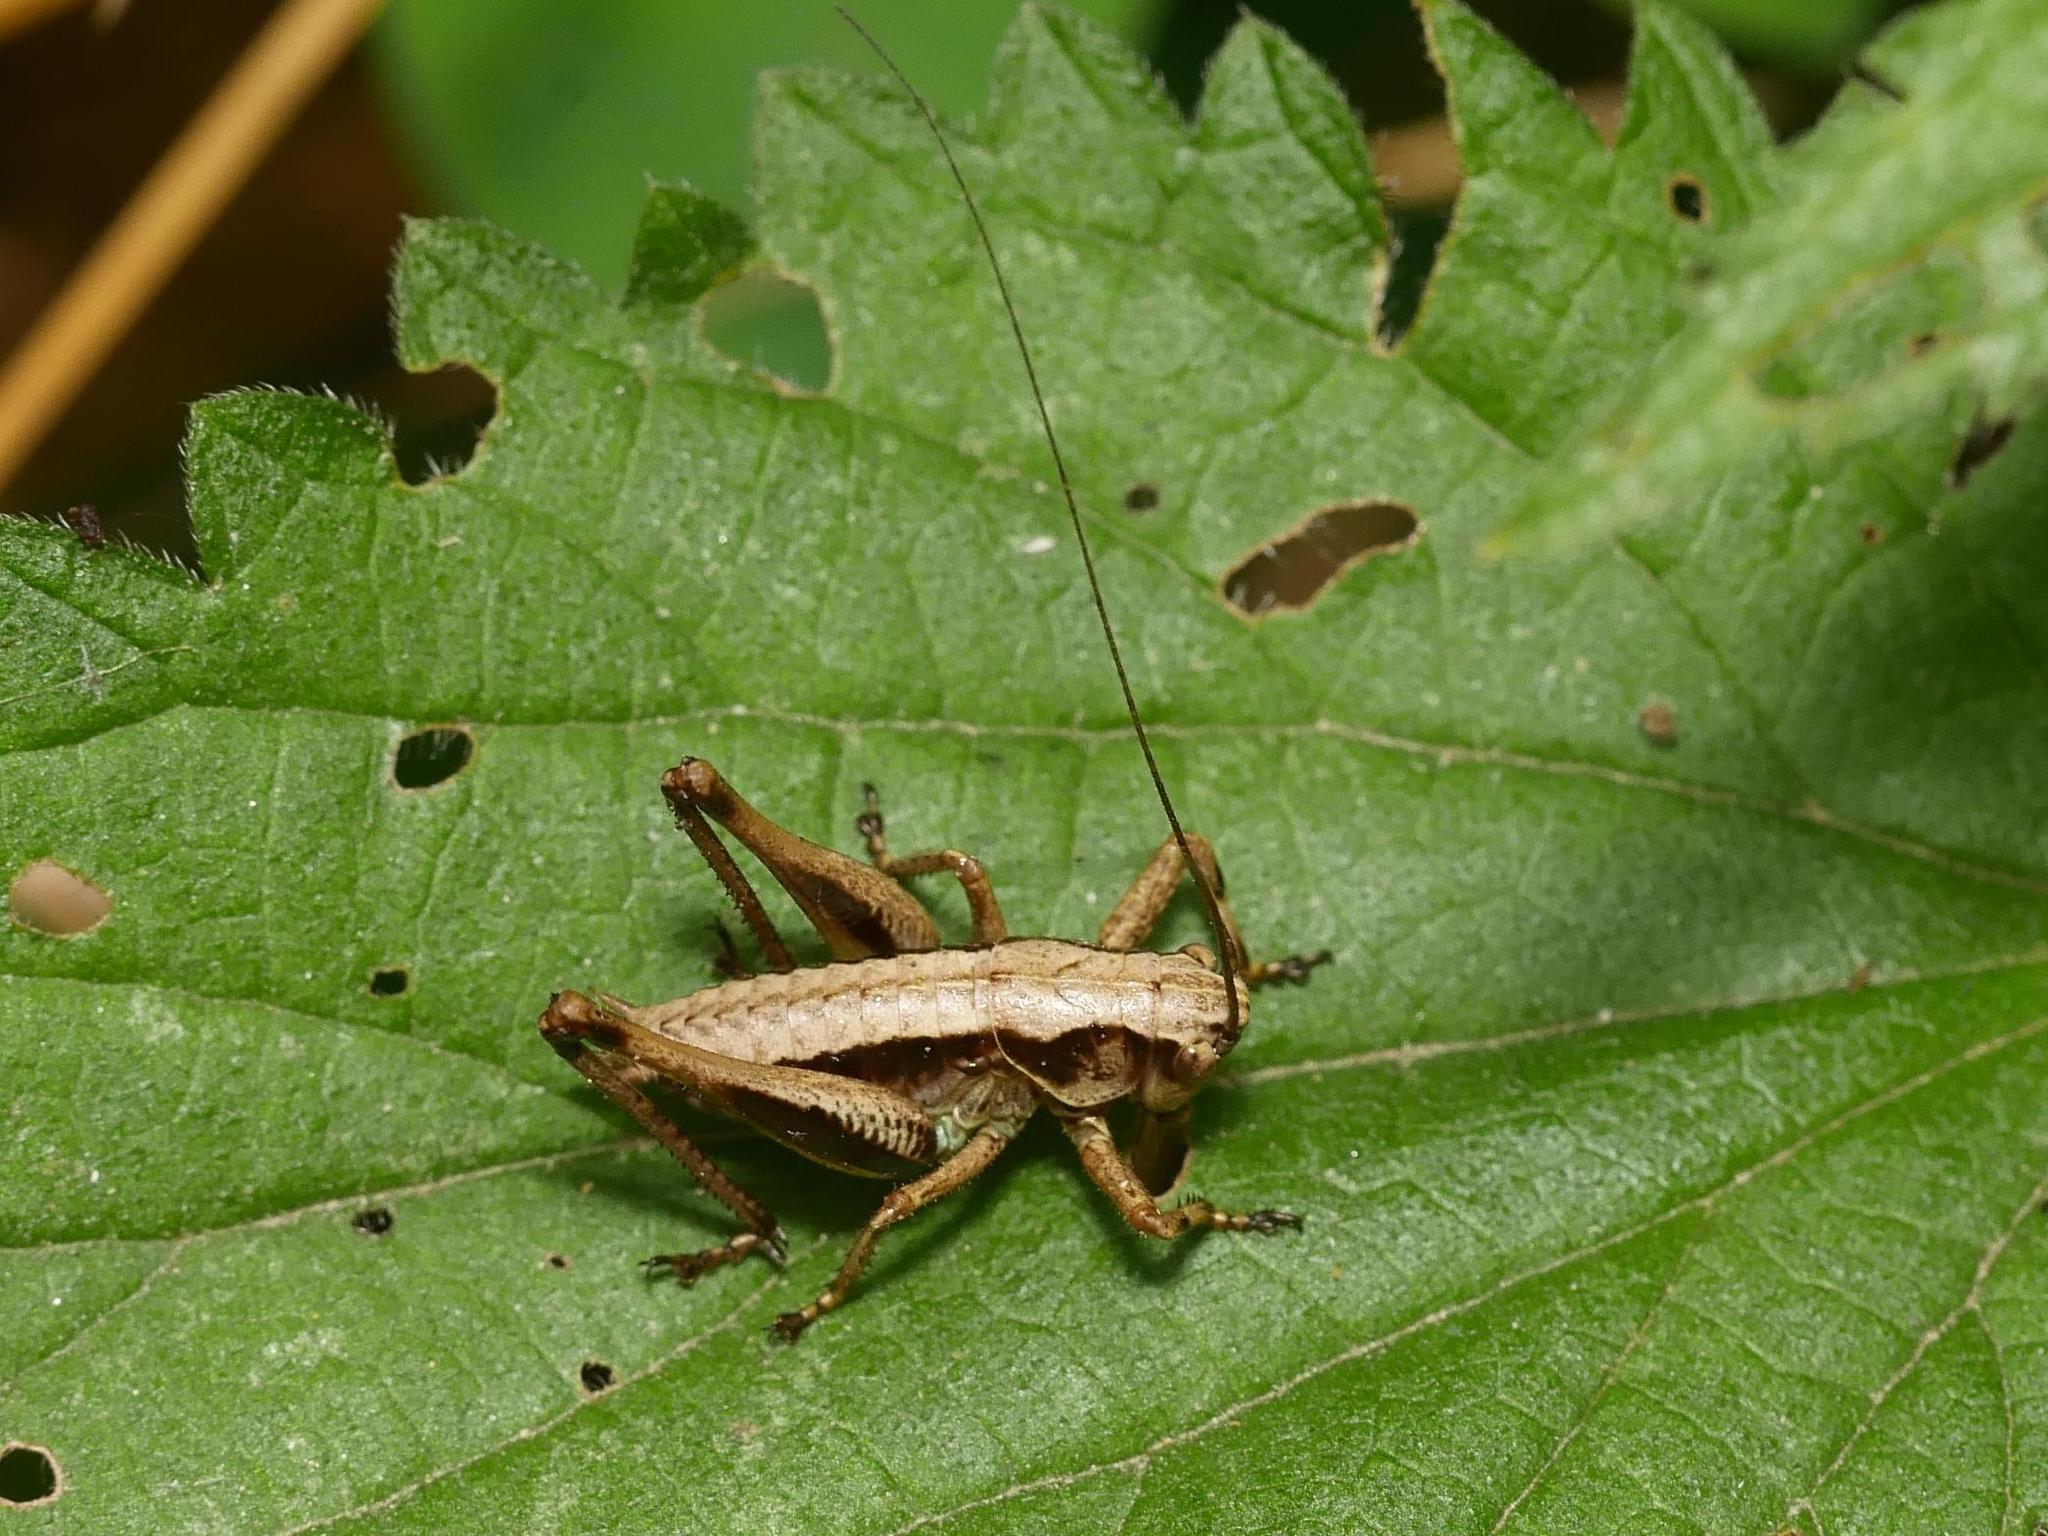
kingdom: Animalia
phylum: Arthropoda
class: Insecta
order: Orthoptera
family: Tettigoniidae
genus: Pholidoptera
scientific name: Pholidoptera griseoaptera
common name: Dark bush-cricket
